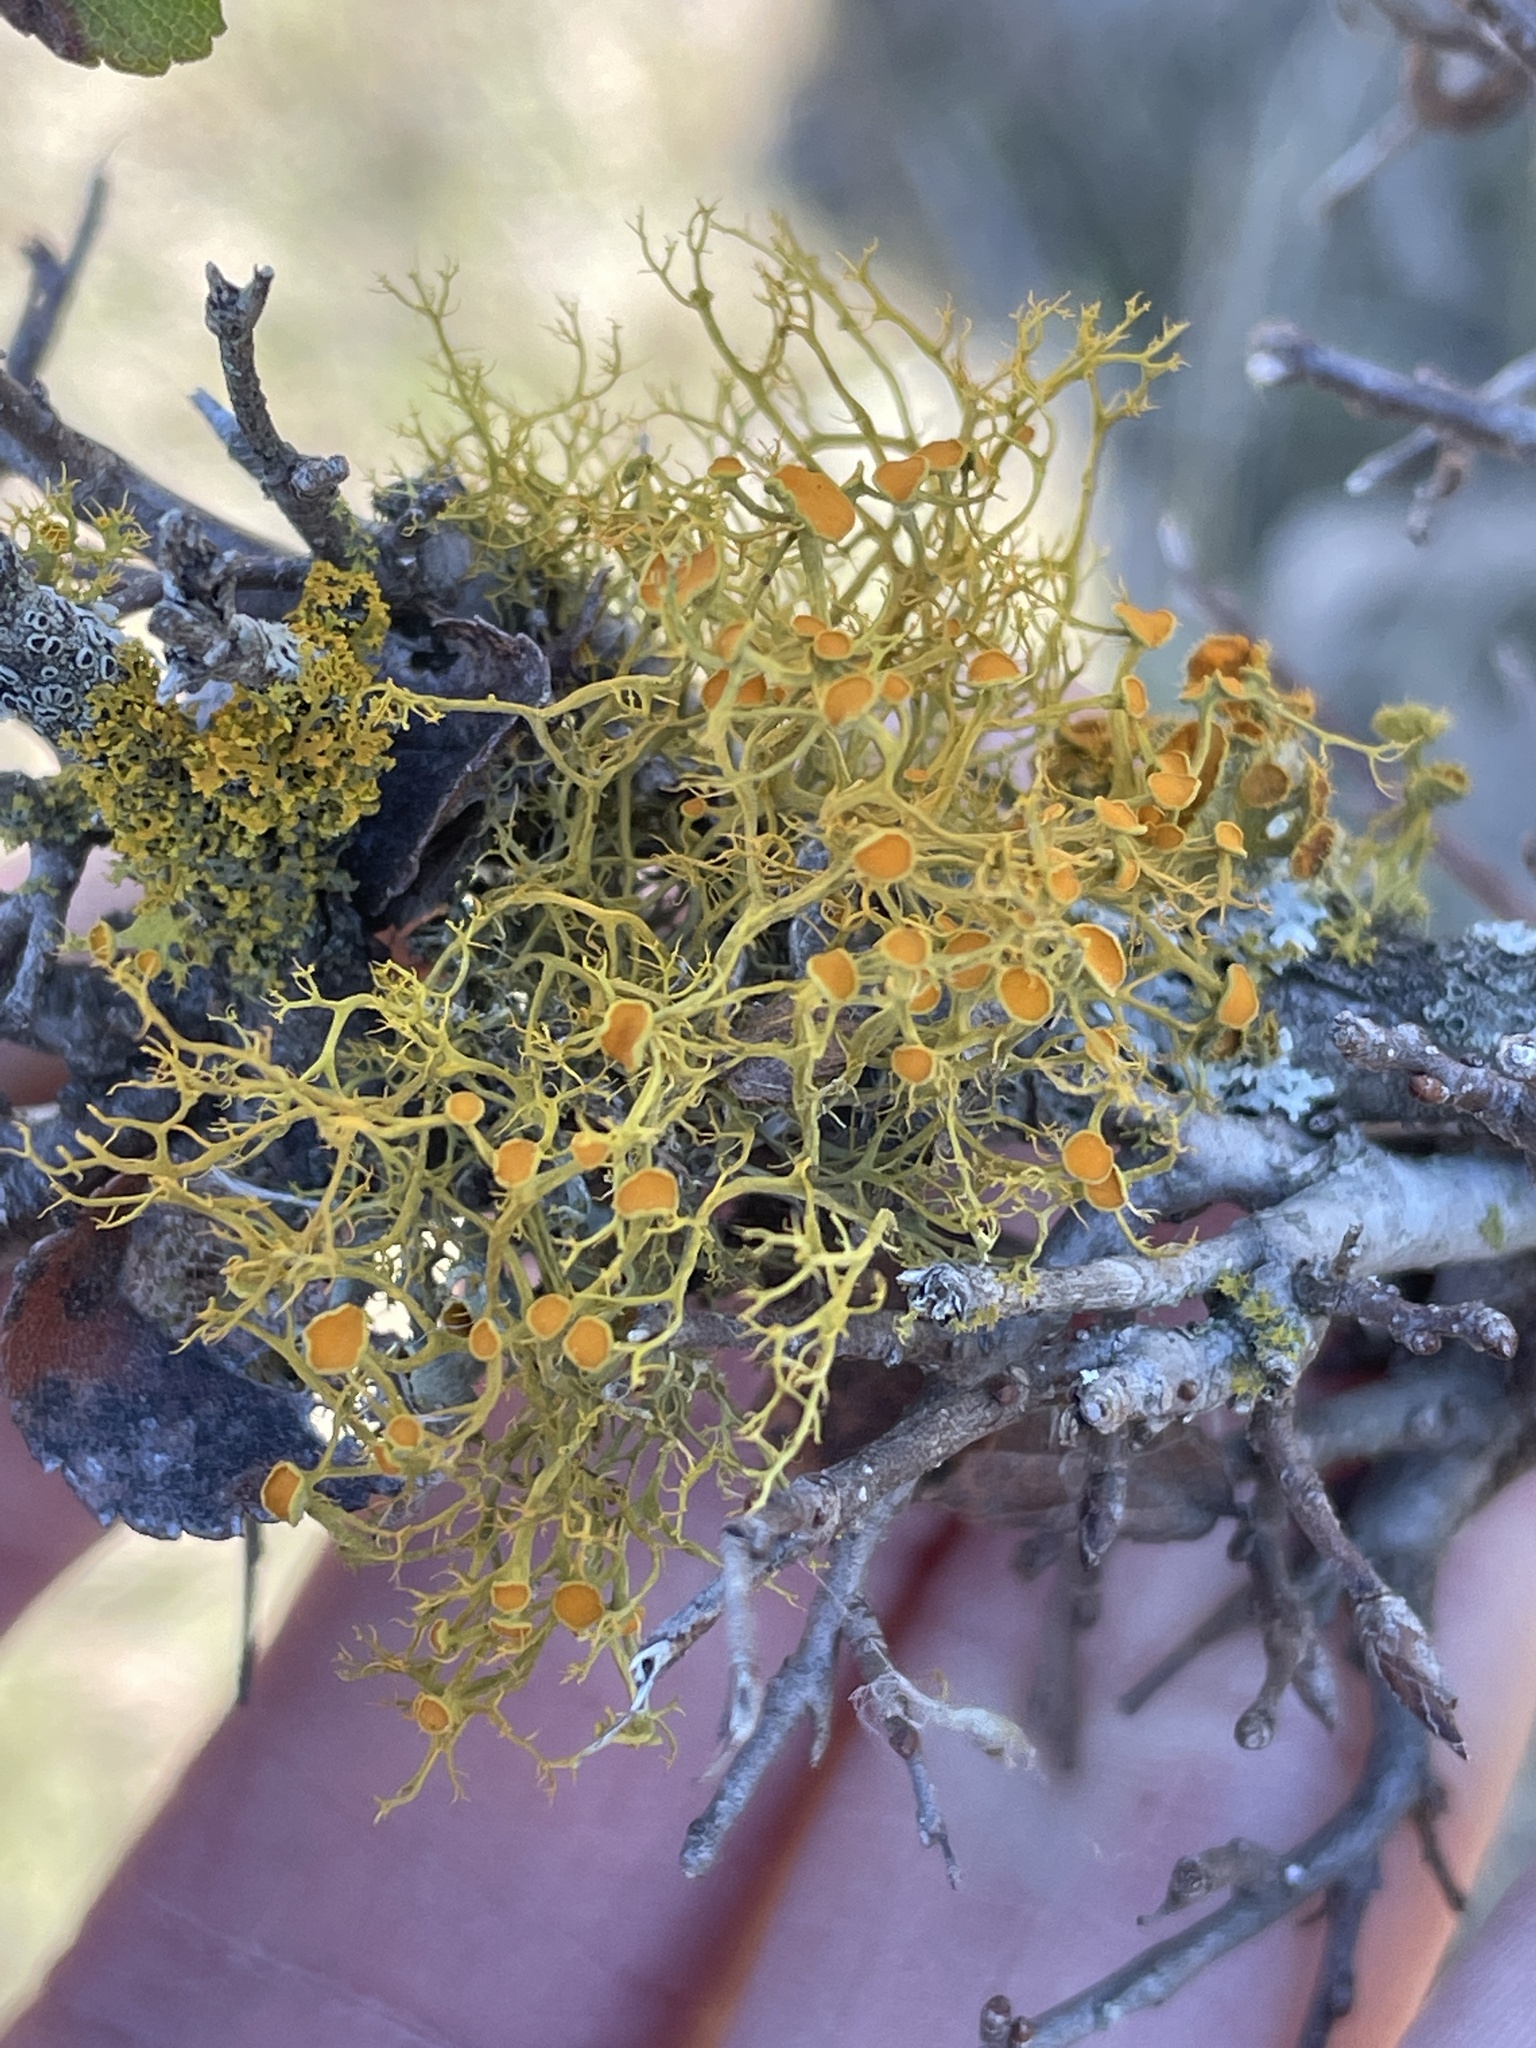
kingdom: Fungi
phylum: Ascomycota
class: Lecanoromycetes
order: Teloschistales
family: Teloschistaceae
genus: Teloschistes
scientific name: Teloschistes exilis
